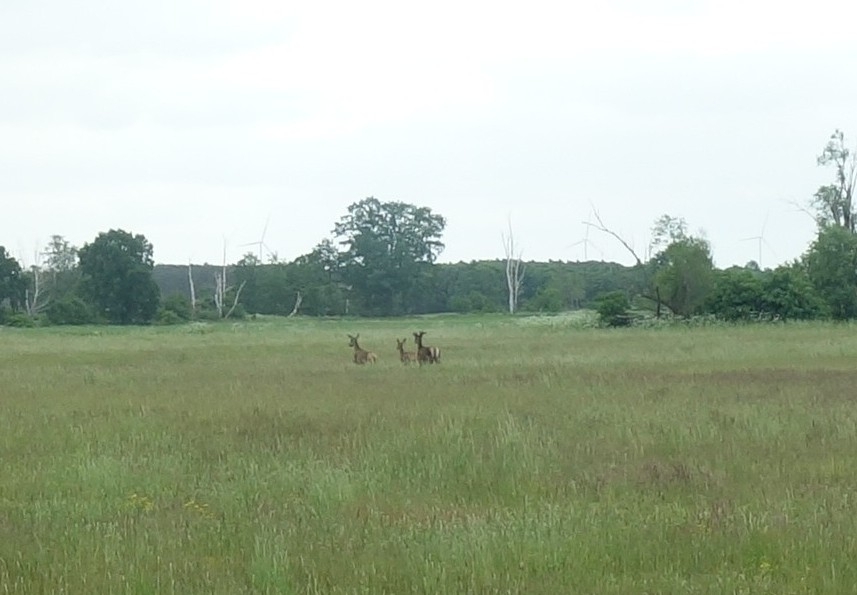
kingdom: Animalia
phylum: Chordata
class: Mammalia
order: Artiodactyla
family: Cervidae
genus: Cervus
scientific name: Cervus elaphus
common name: Red deer
